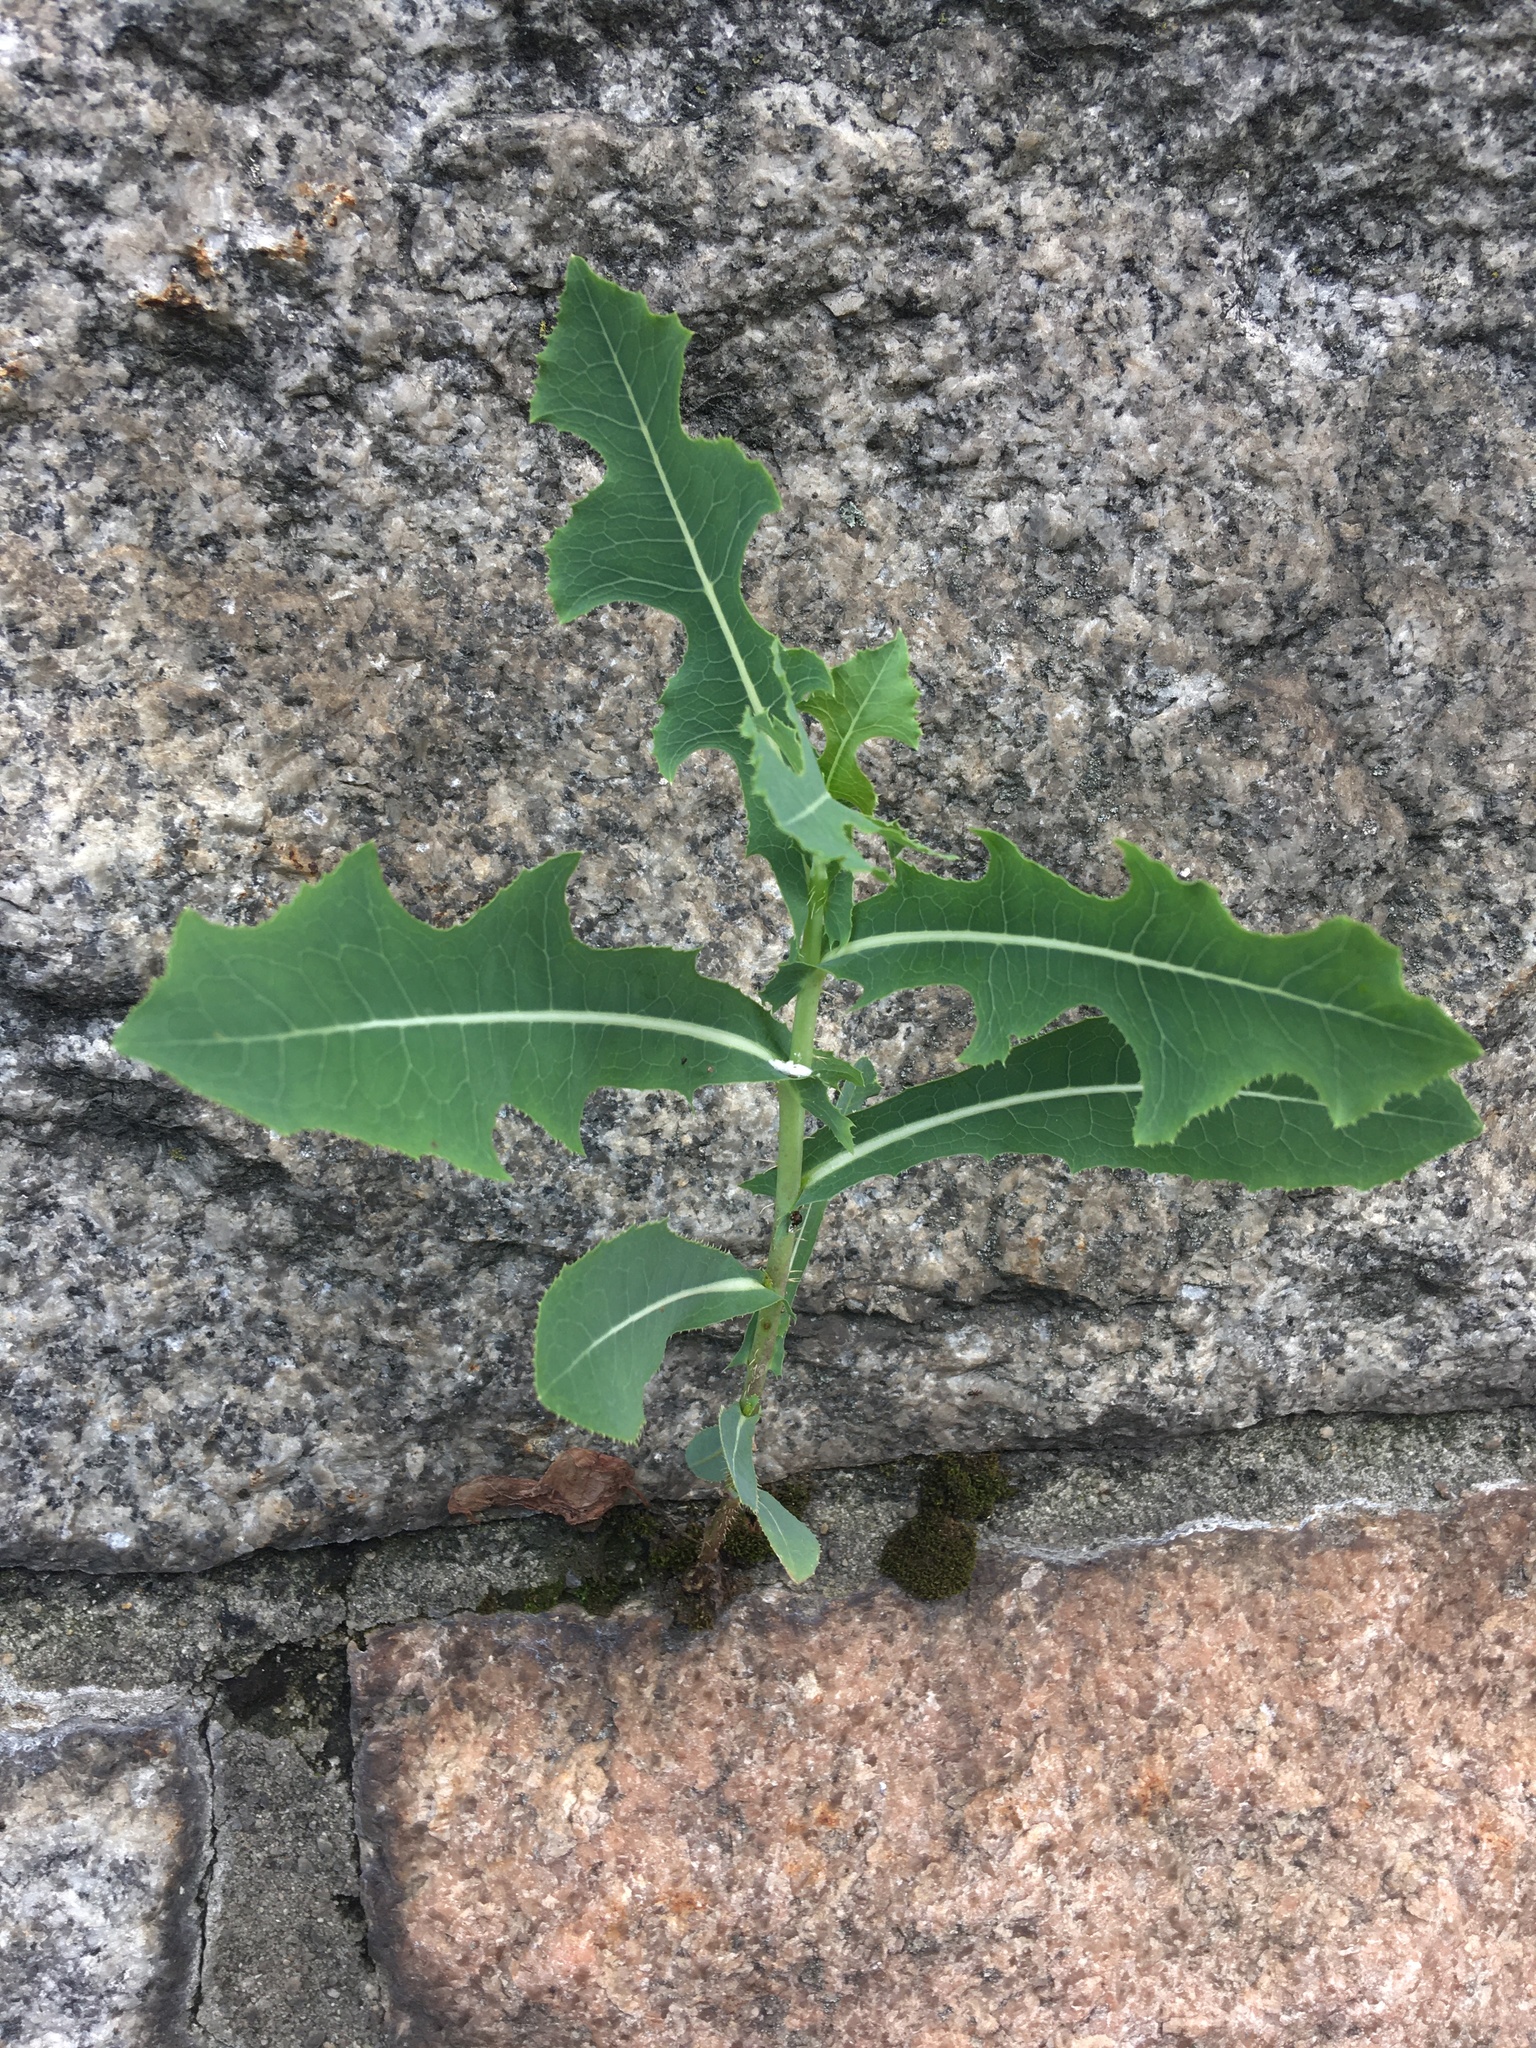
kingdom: Plantae
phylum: Tracheophyta
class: Magnoliopsida
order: Asterales
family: Asteraceae
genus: Lactuca
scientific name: Lactuca serriola
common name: Prickly lettuce
